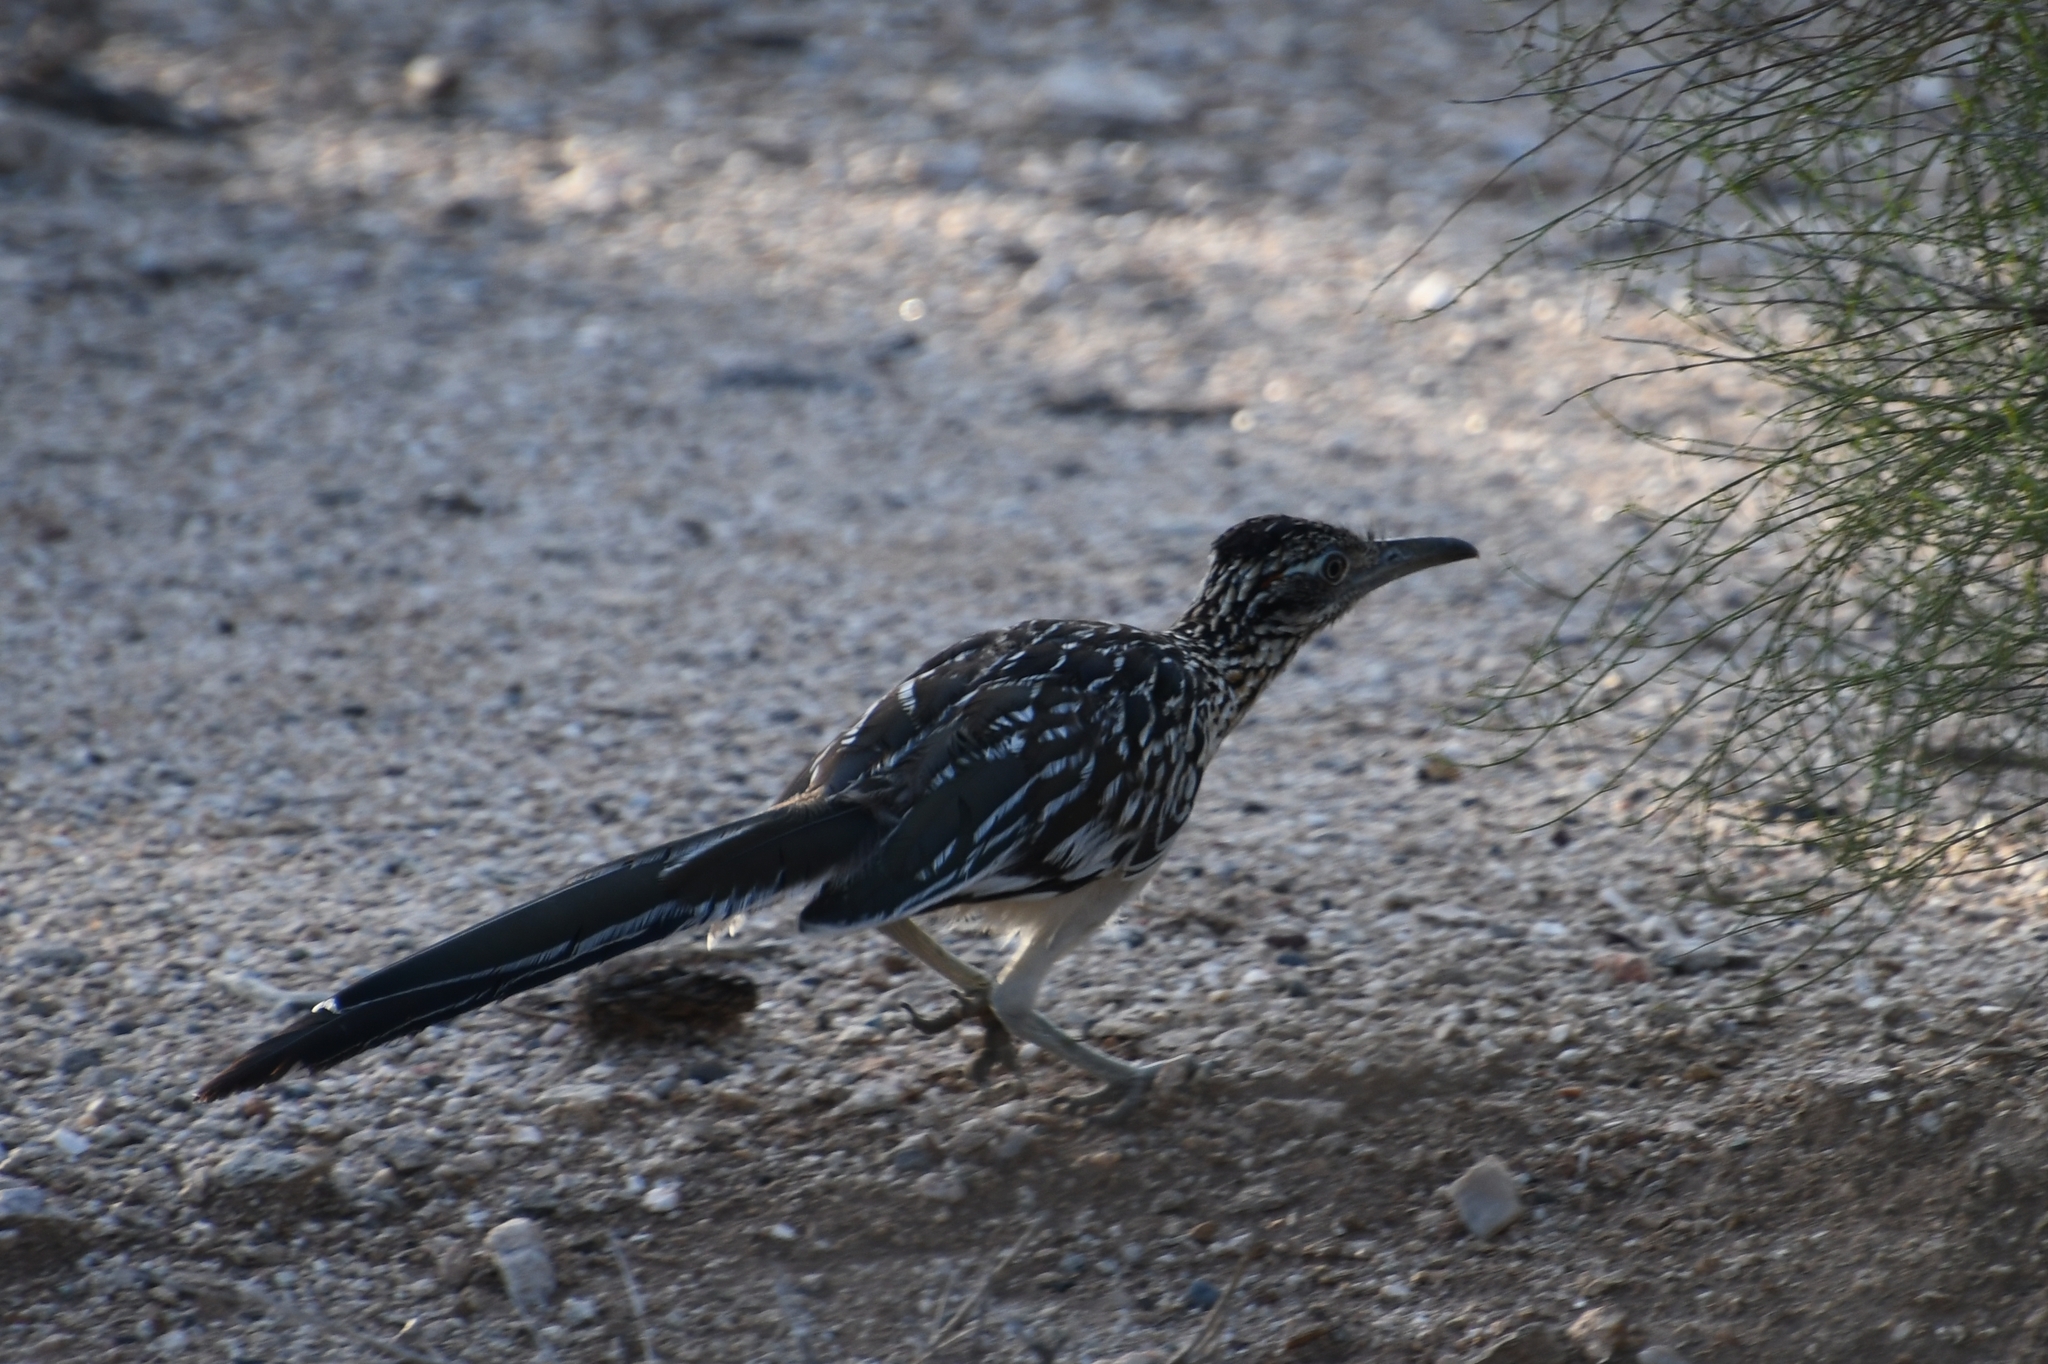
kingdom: Animalia
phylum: Chordata
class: Aves
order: Cuculiformes
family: Cuculidae
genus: Geococcyx
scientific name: Geococcyx californianus
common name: Greater roadrunner
